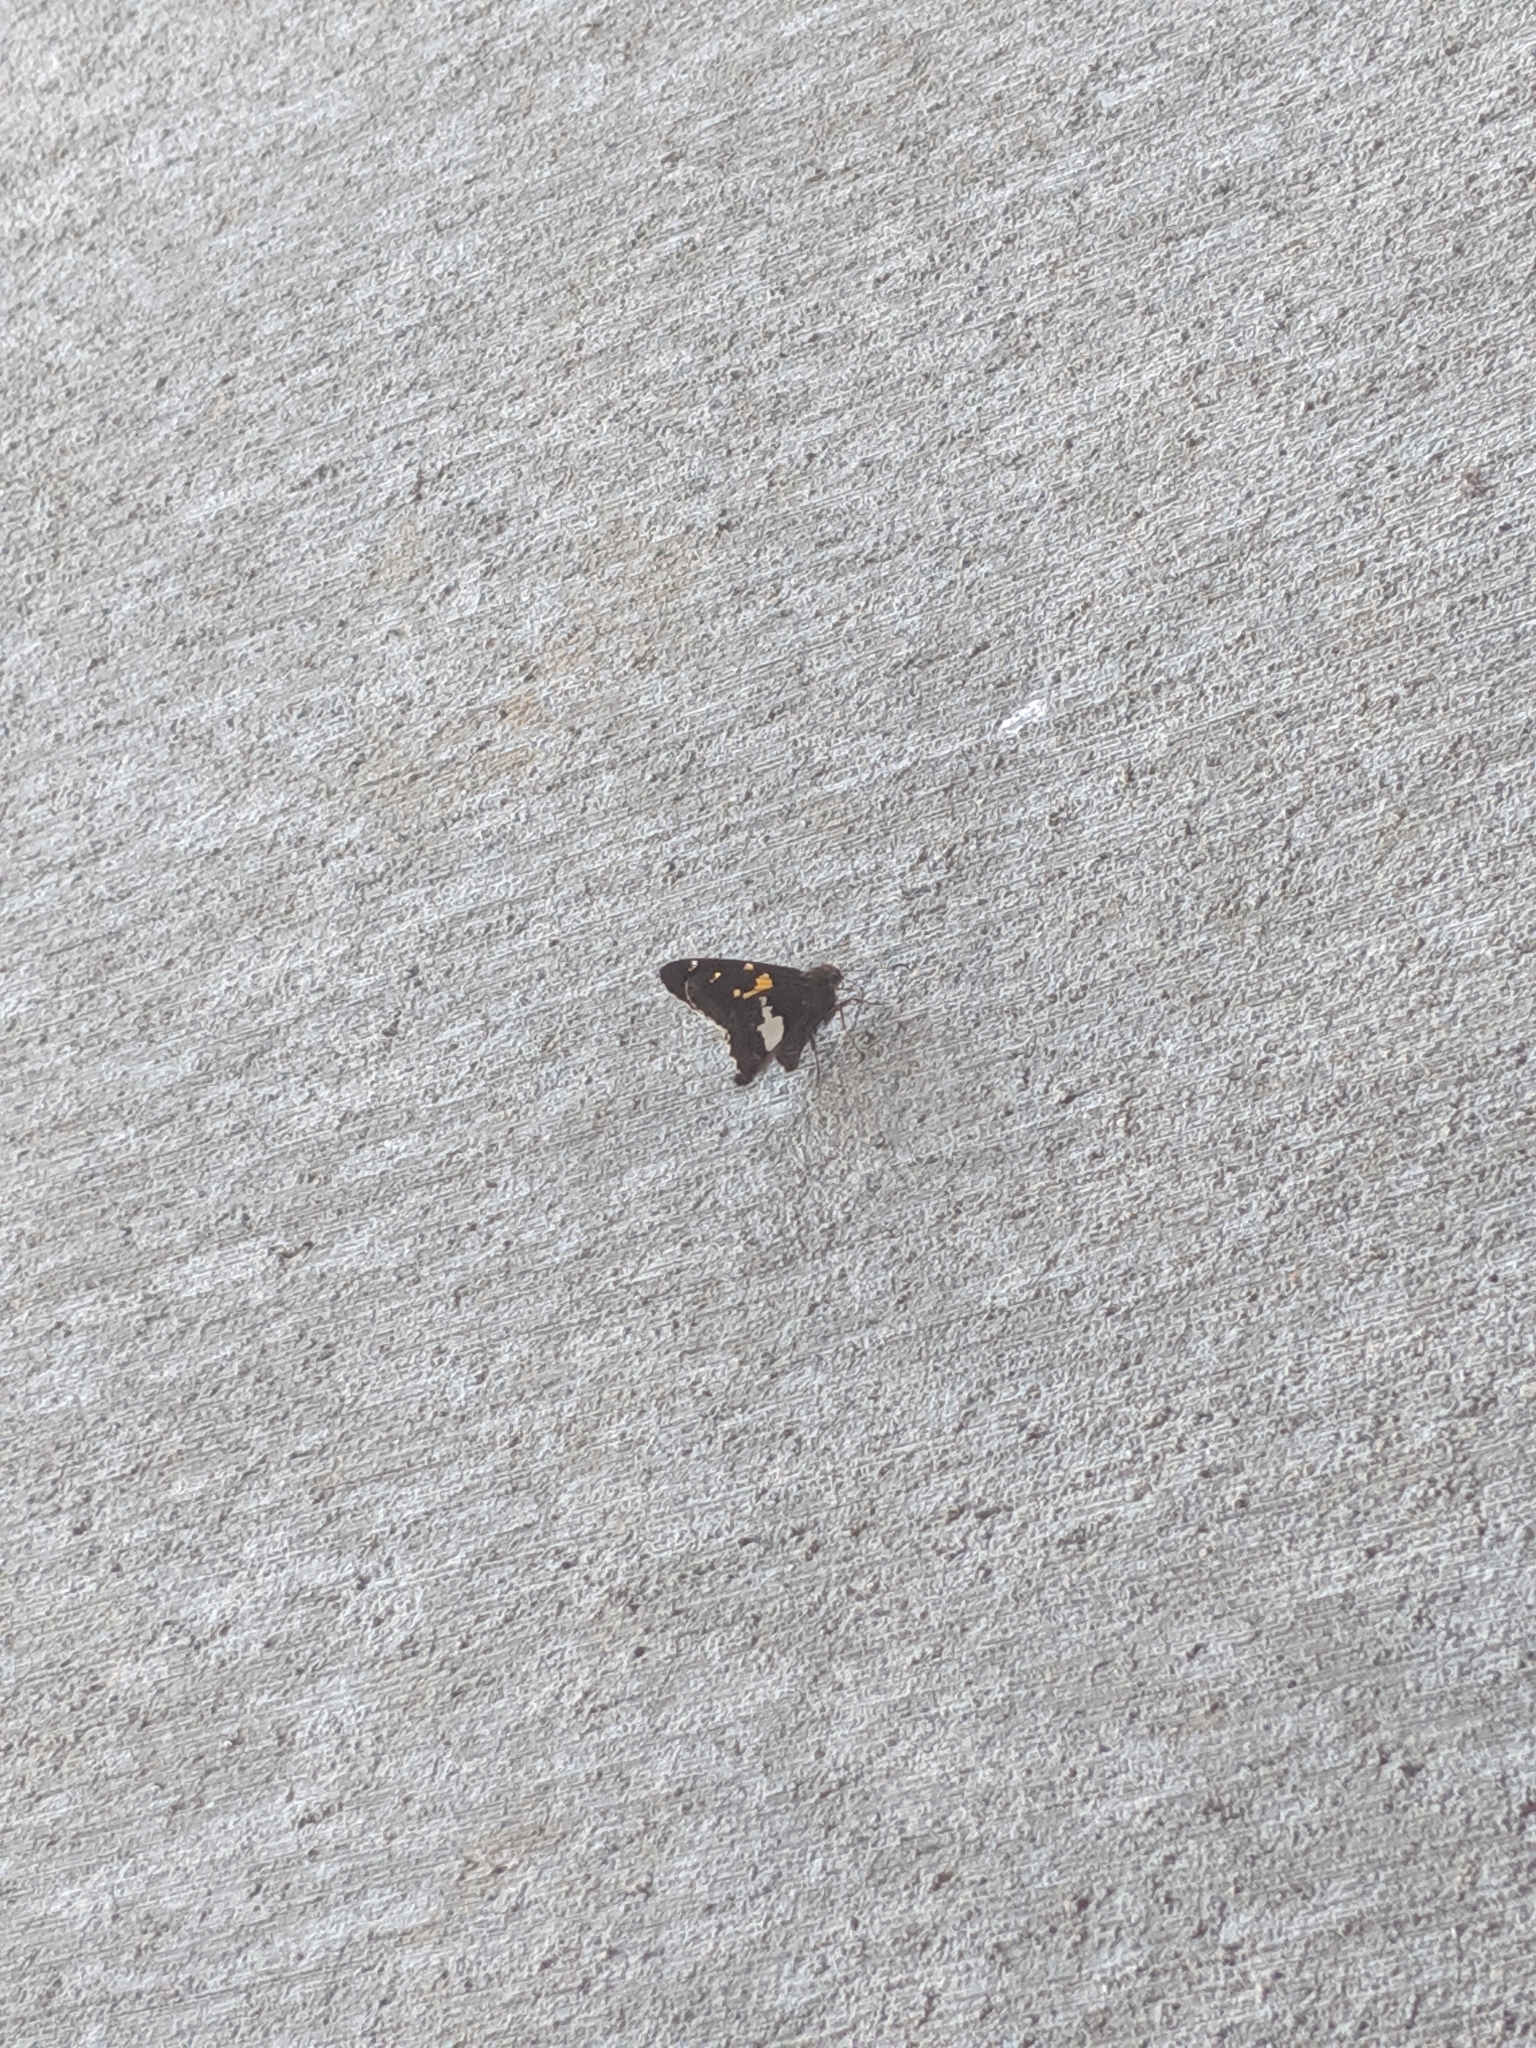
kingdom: Animalia
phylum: Arthropoda
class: Insecta
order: Lepidoptera
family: Hesperiidae
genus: Epargyreus
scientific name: Epargyreus clarus
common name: Silver-spotted skipper
